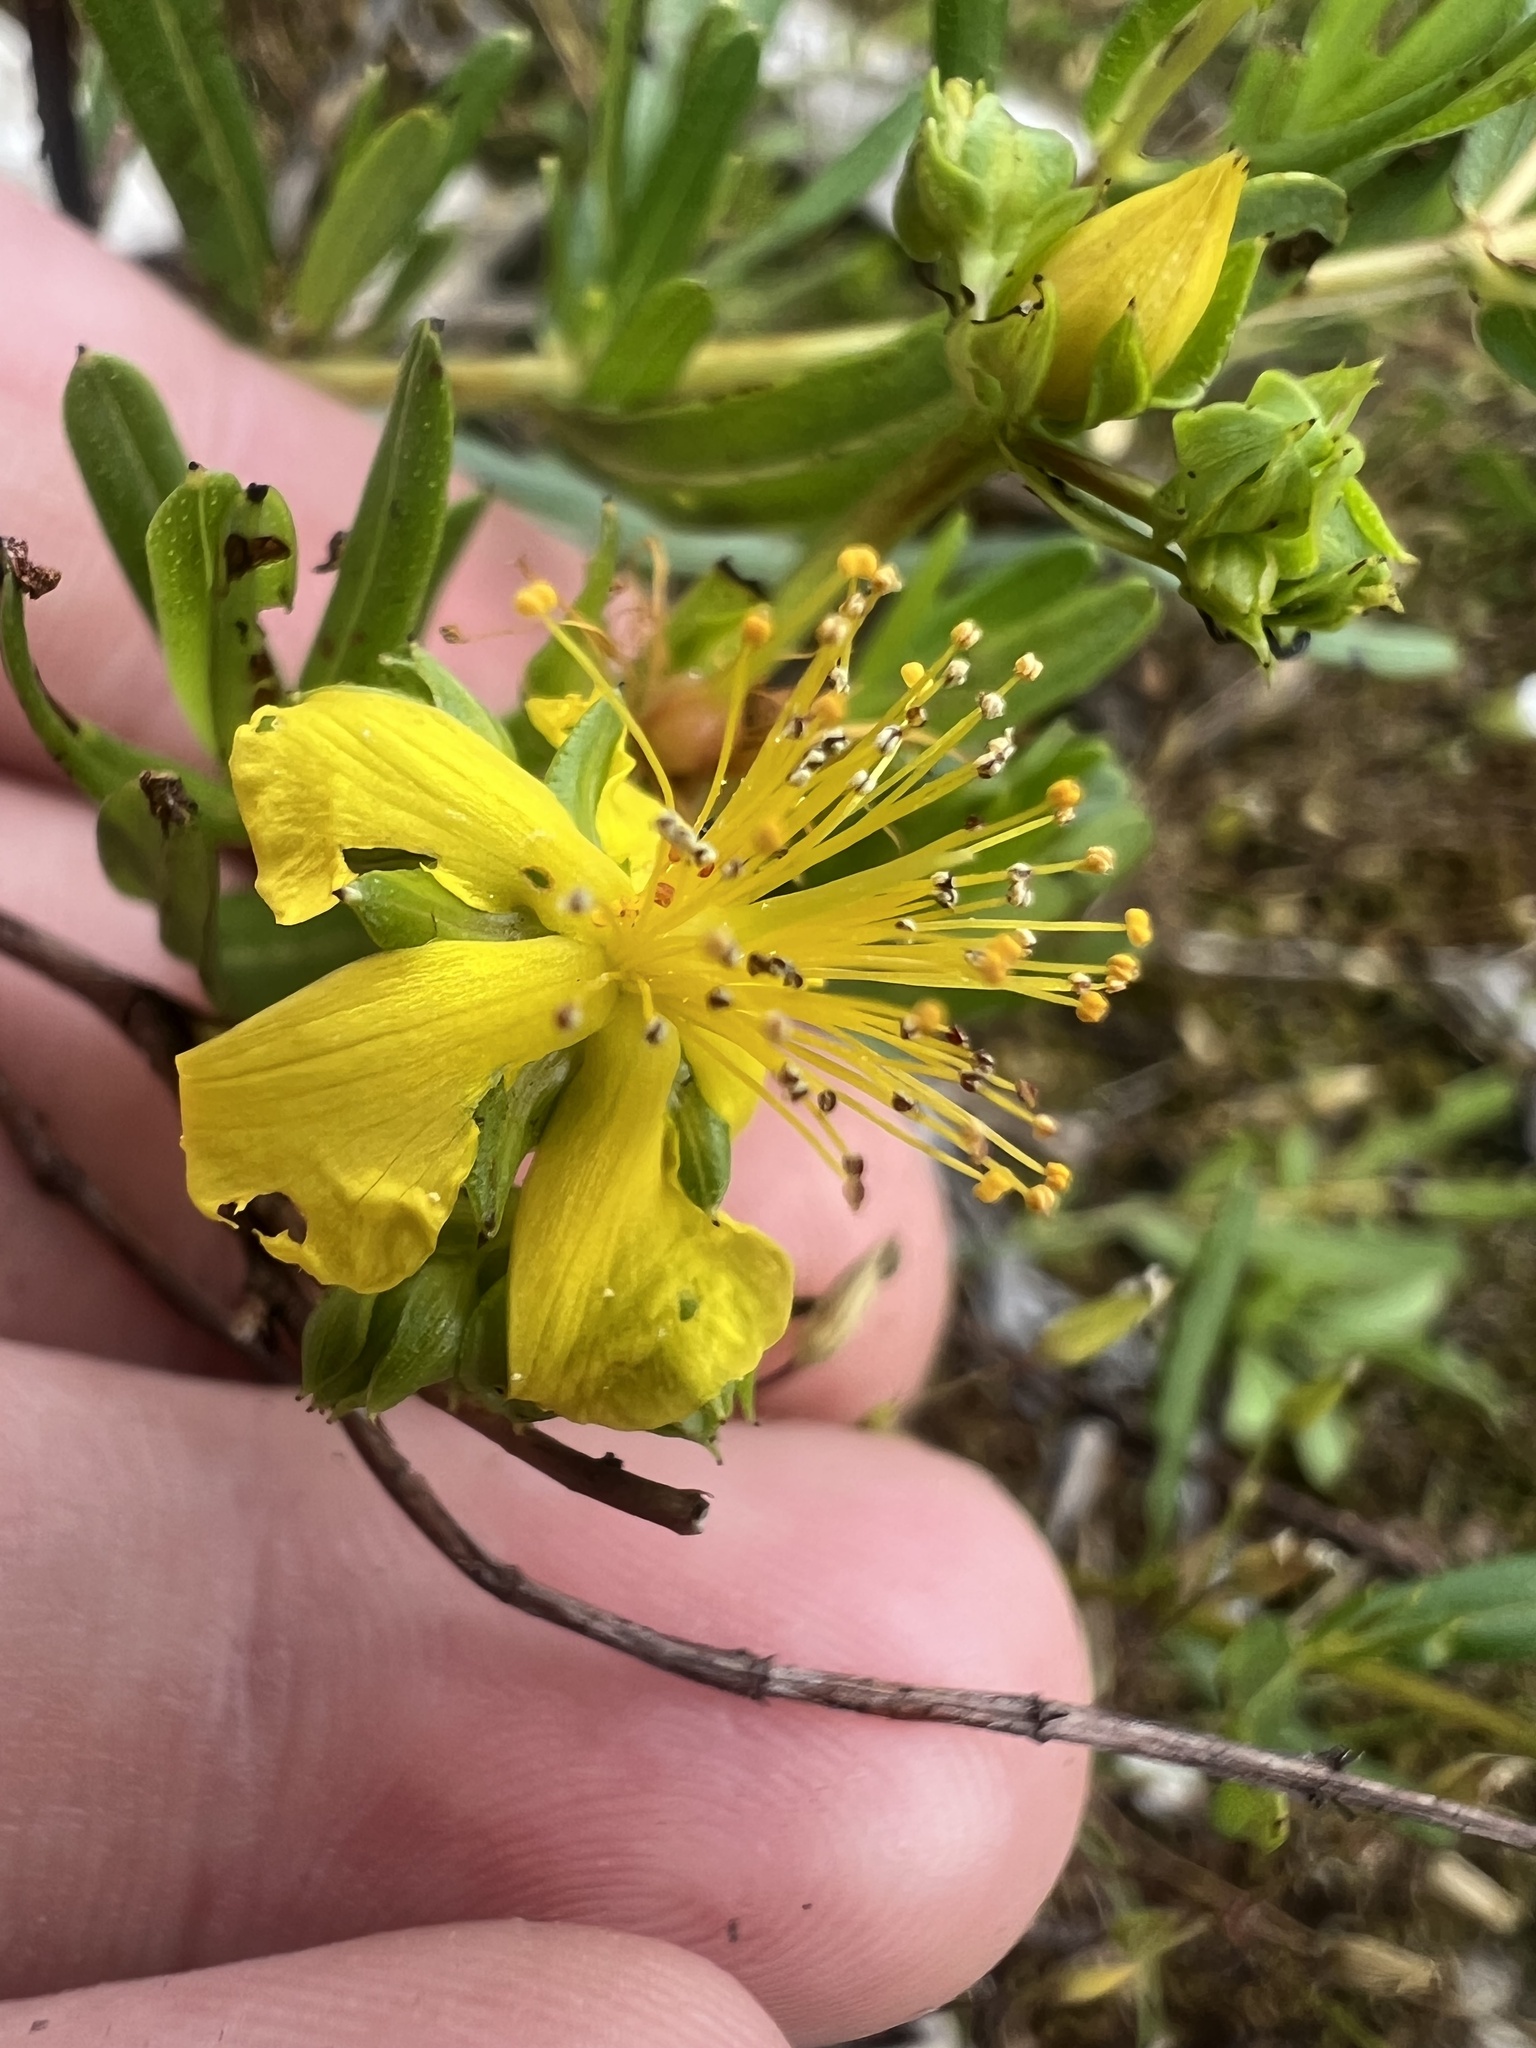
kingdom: Plantae
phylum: Tracheophyta
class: Magnoliopsida
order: Malpighiales
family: Hypericaceae
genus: Hypericum
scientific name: Hypericum sphaerocarpum
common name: Round-fruited st. john's-wort
